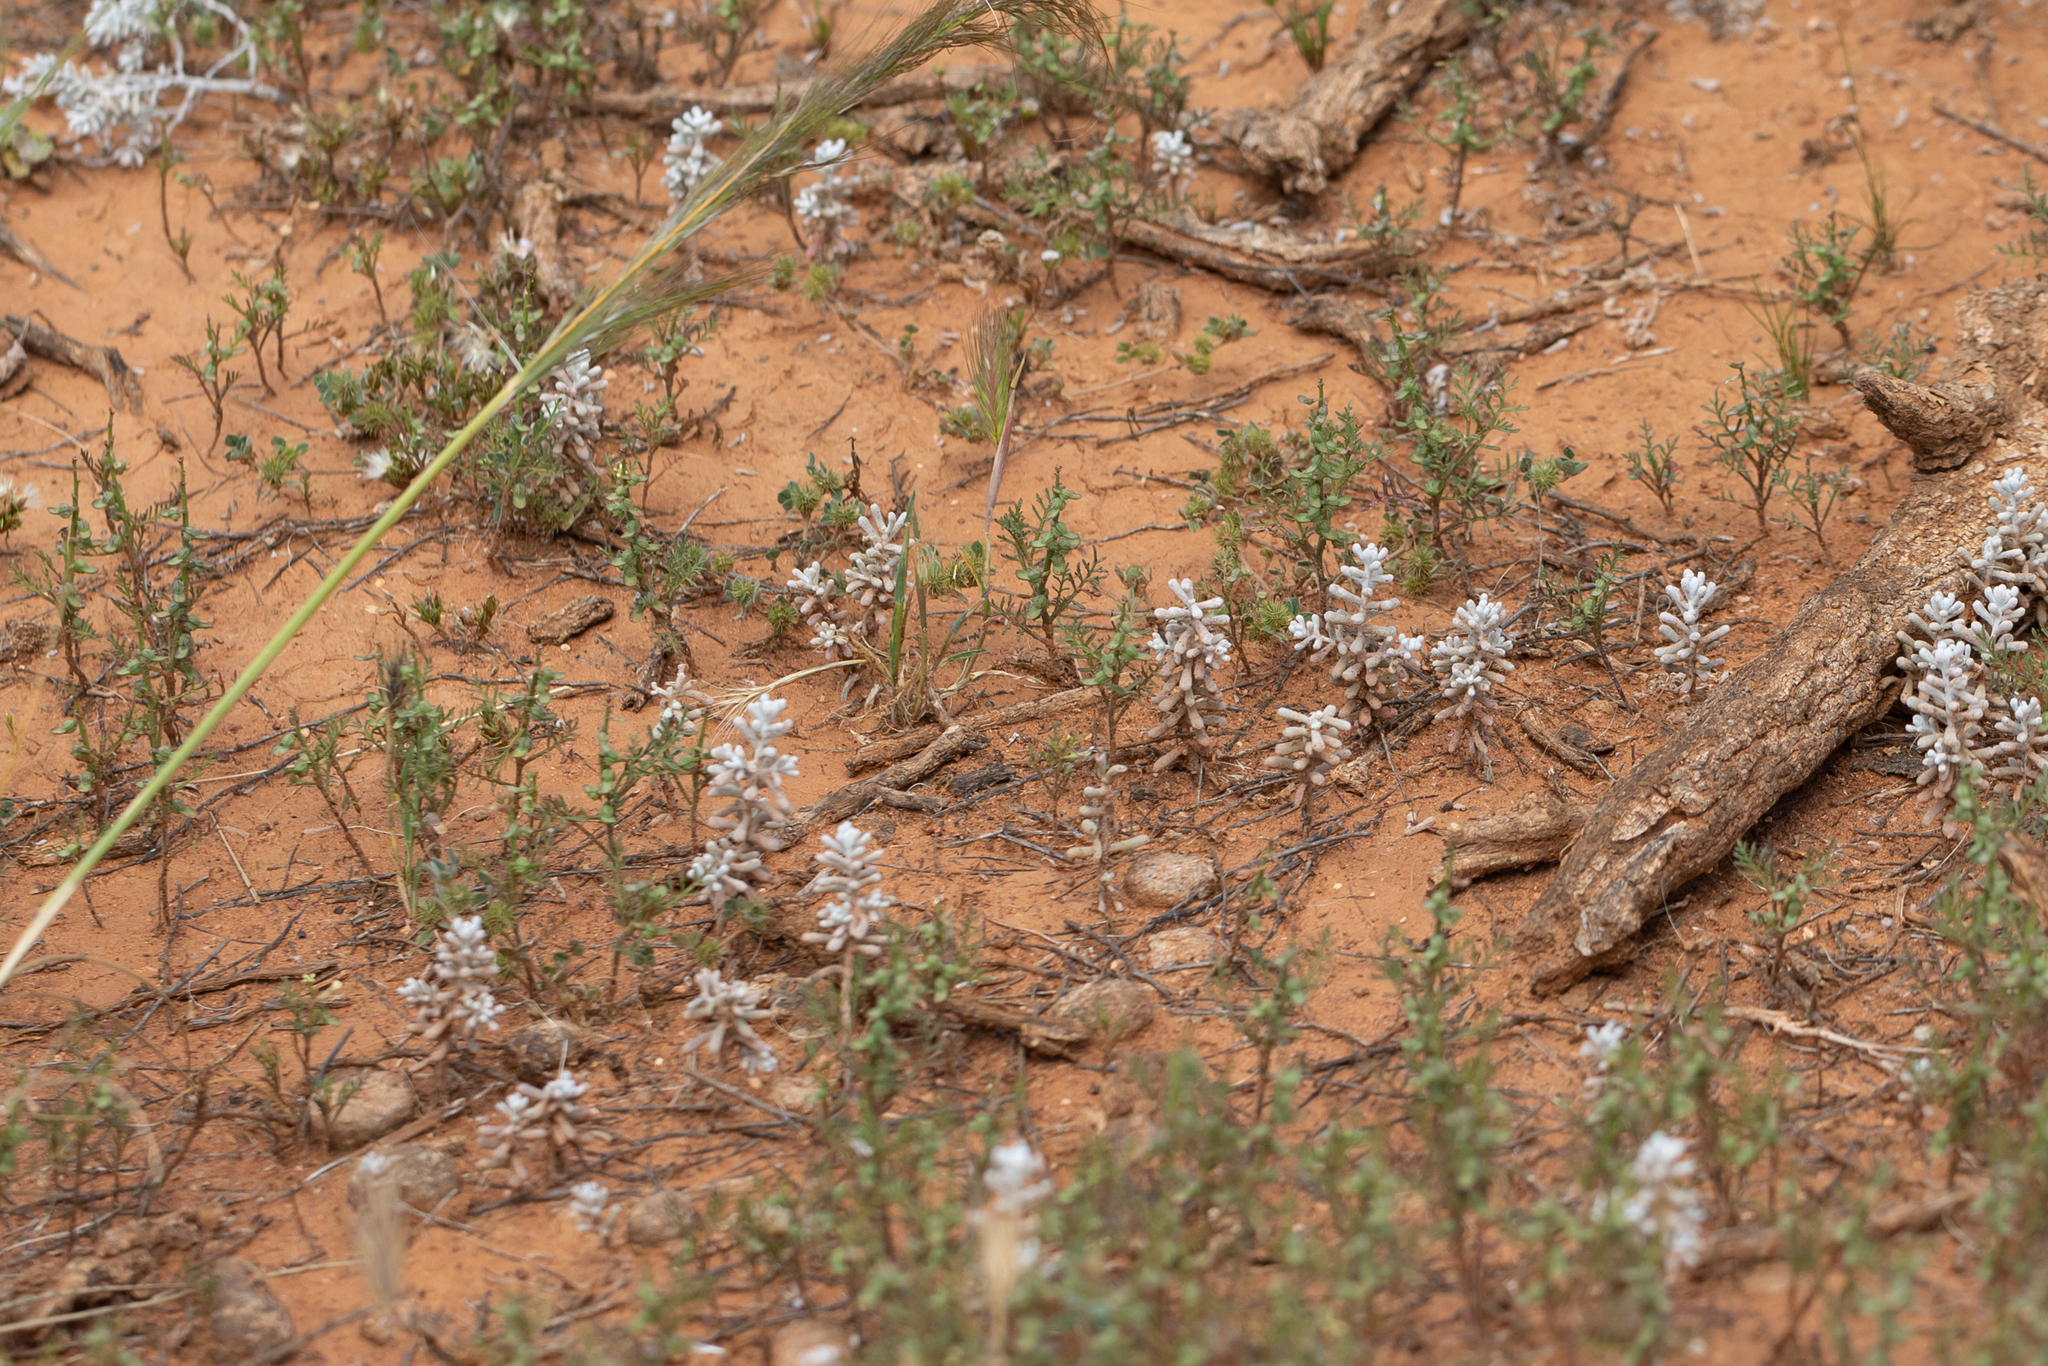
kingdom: Plantae
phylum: Tracheophyta
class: Magnoliopsida
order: Caryophyllales
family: Amaranthaceae
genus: Maireana
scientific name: Maireana sedifolia
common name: Hoary bluebush
